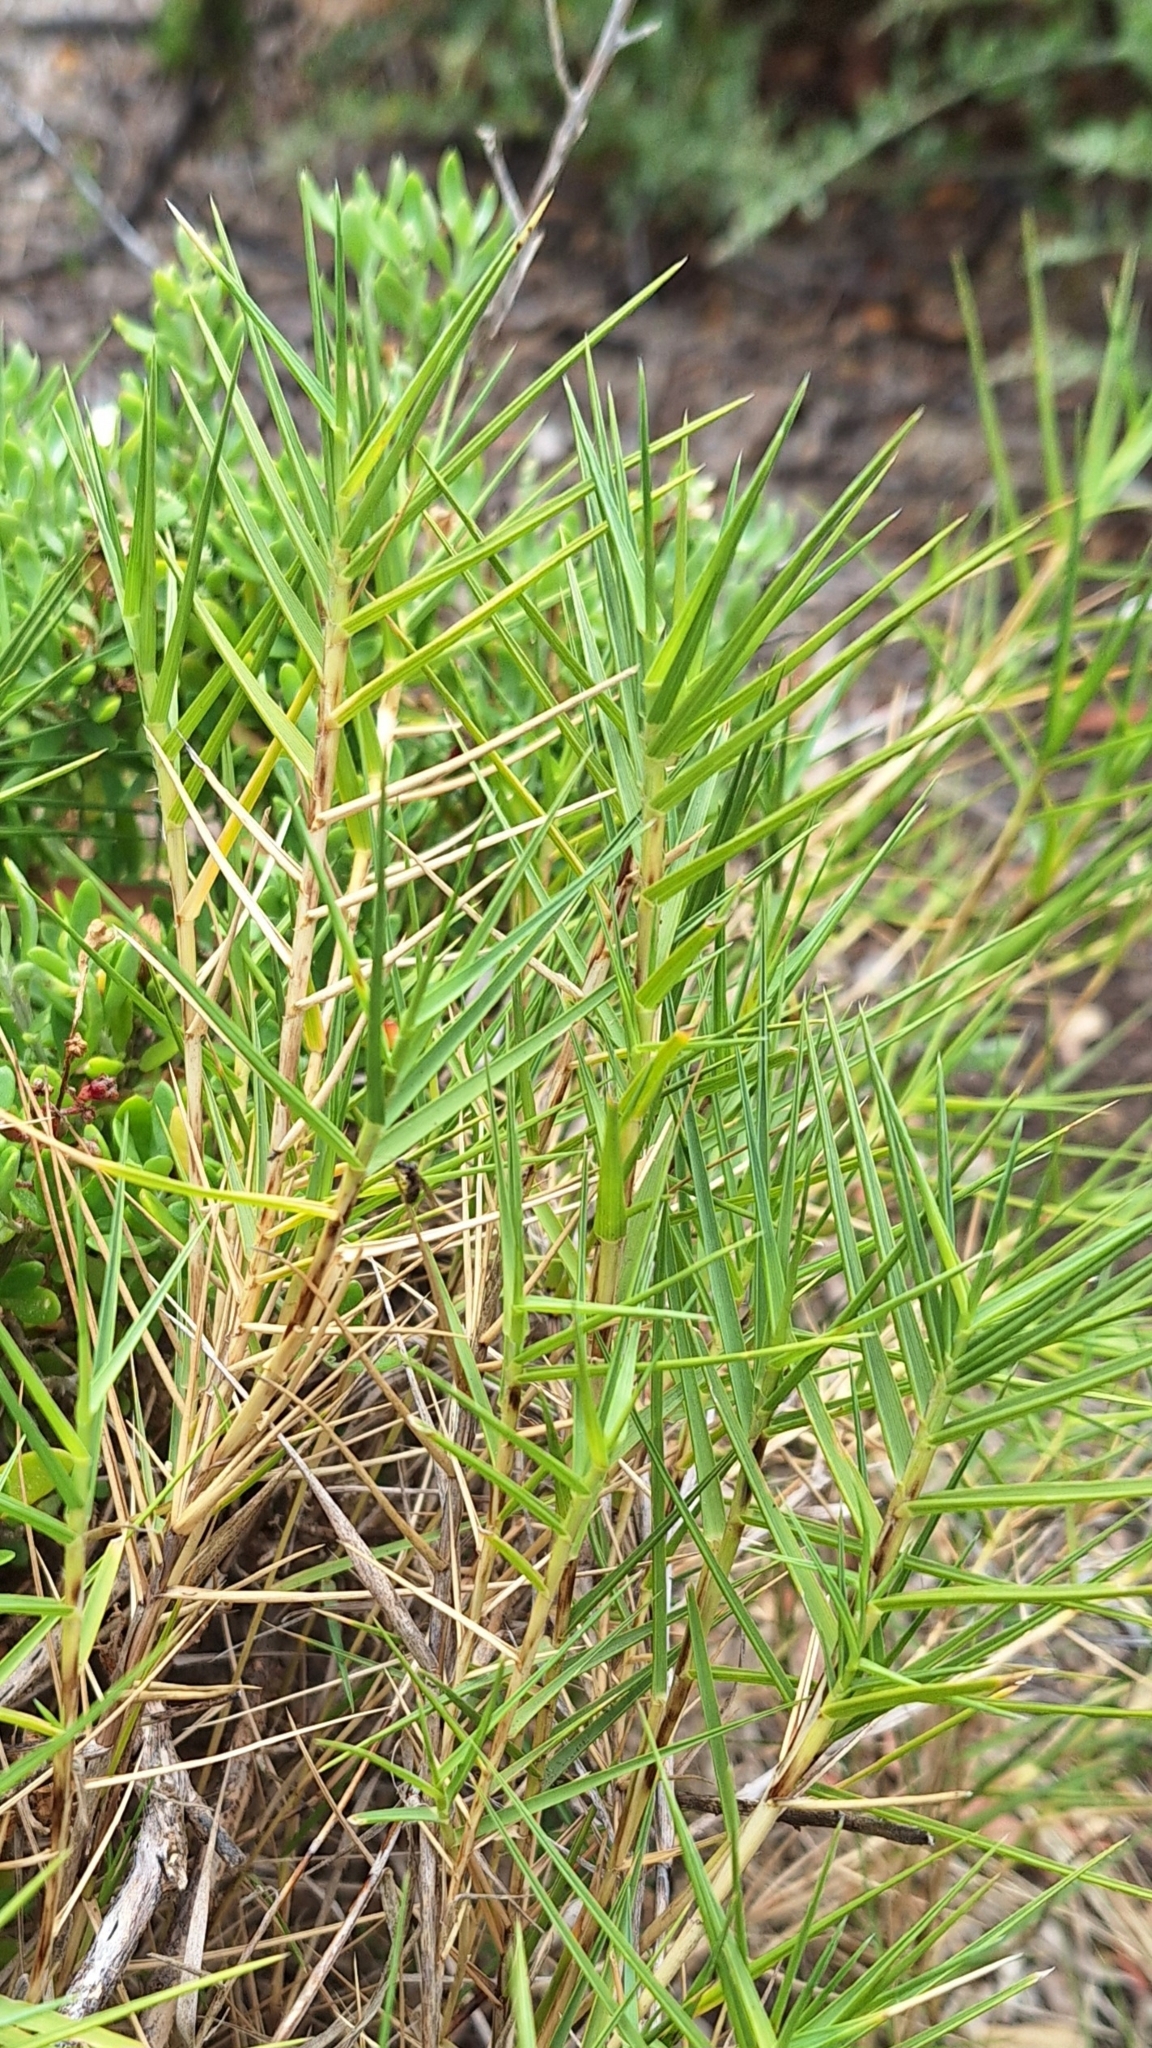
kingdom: Plantae
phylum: Tracheophyta
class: Liliopsida
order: Poales
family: Poaceae
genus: Distichlis
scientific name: Distichlis distichophylla
